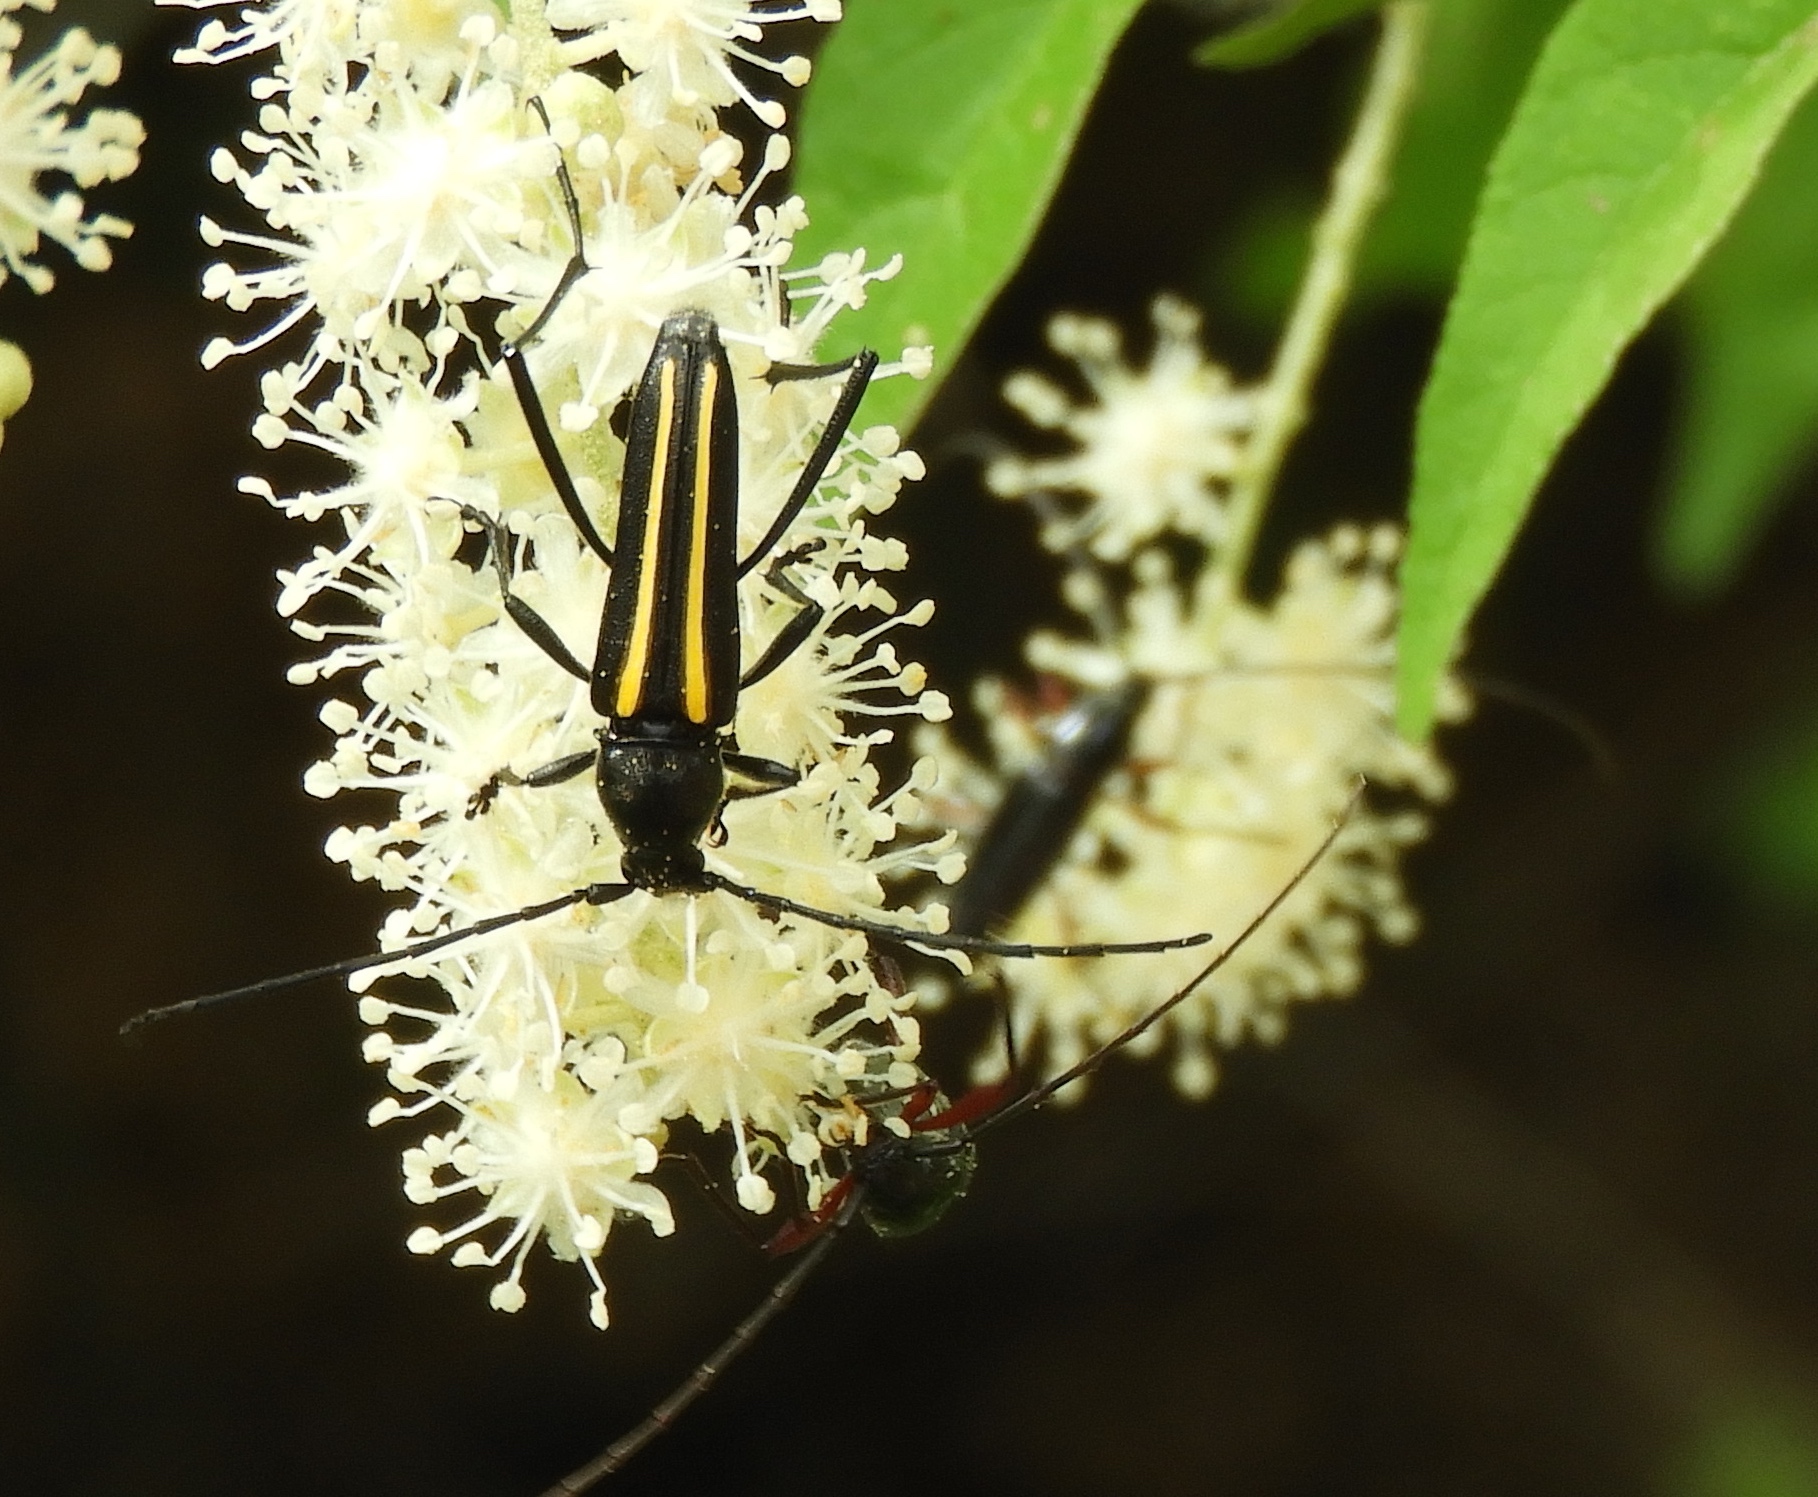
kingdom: Animalia
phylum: Arthropoda
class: Insecta
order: Coleoptera
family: Cerambycidae
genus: Lophalia
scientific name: Lophalia prolata
